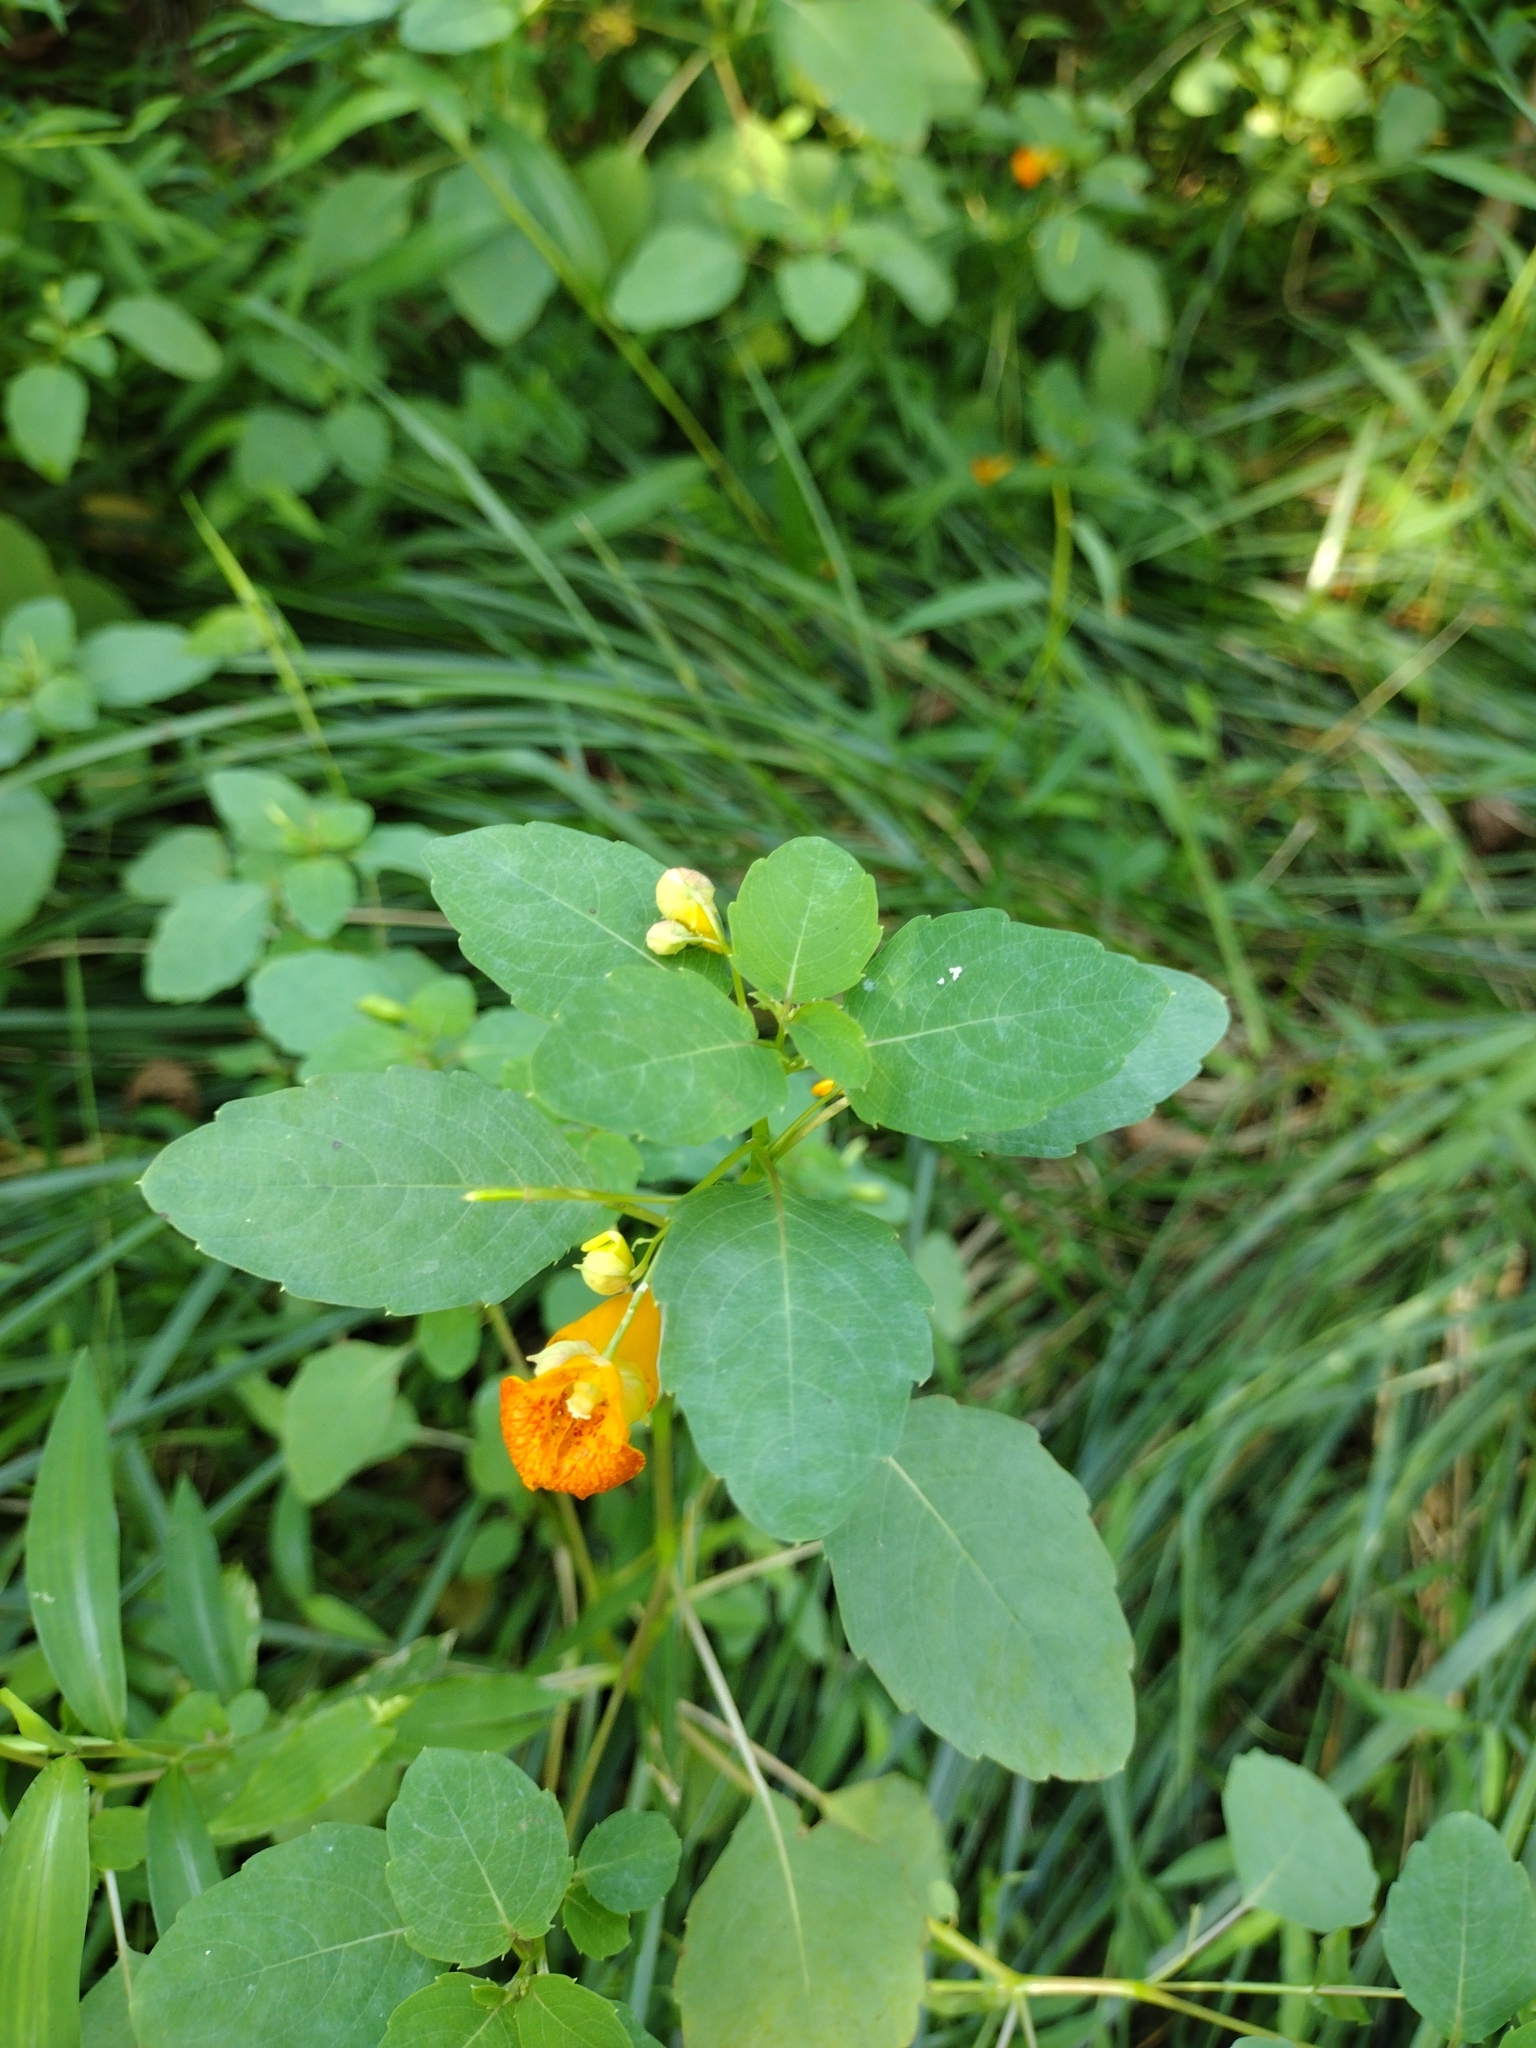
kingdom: Plantae
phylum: Tracheophyta
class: Magnoliopsida
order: Ericales
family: Balsaminaceae
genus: Impatiens
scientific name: Impatiens capensis
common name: Orange balsam
